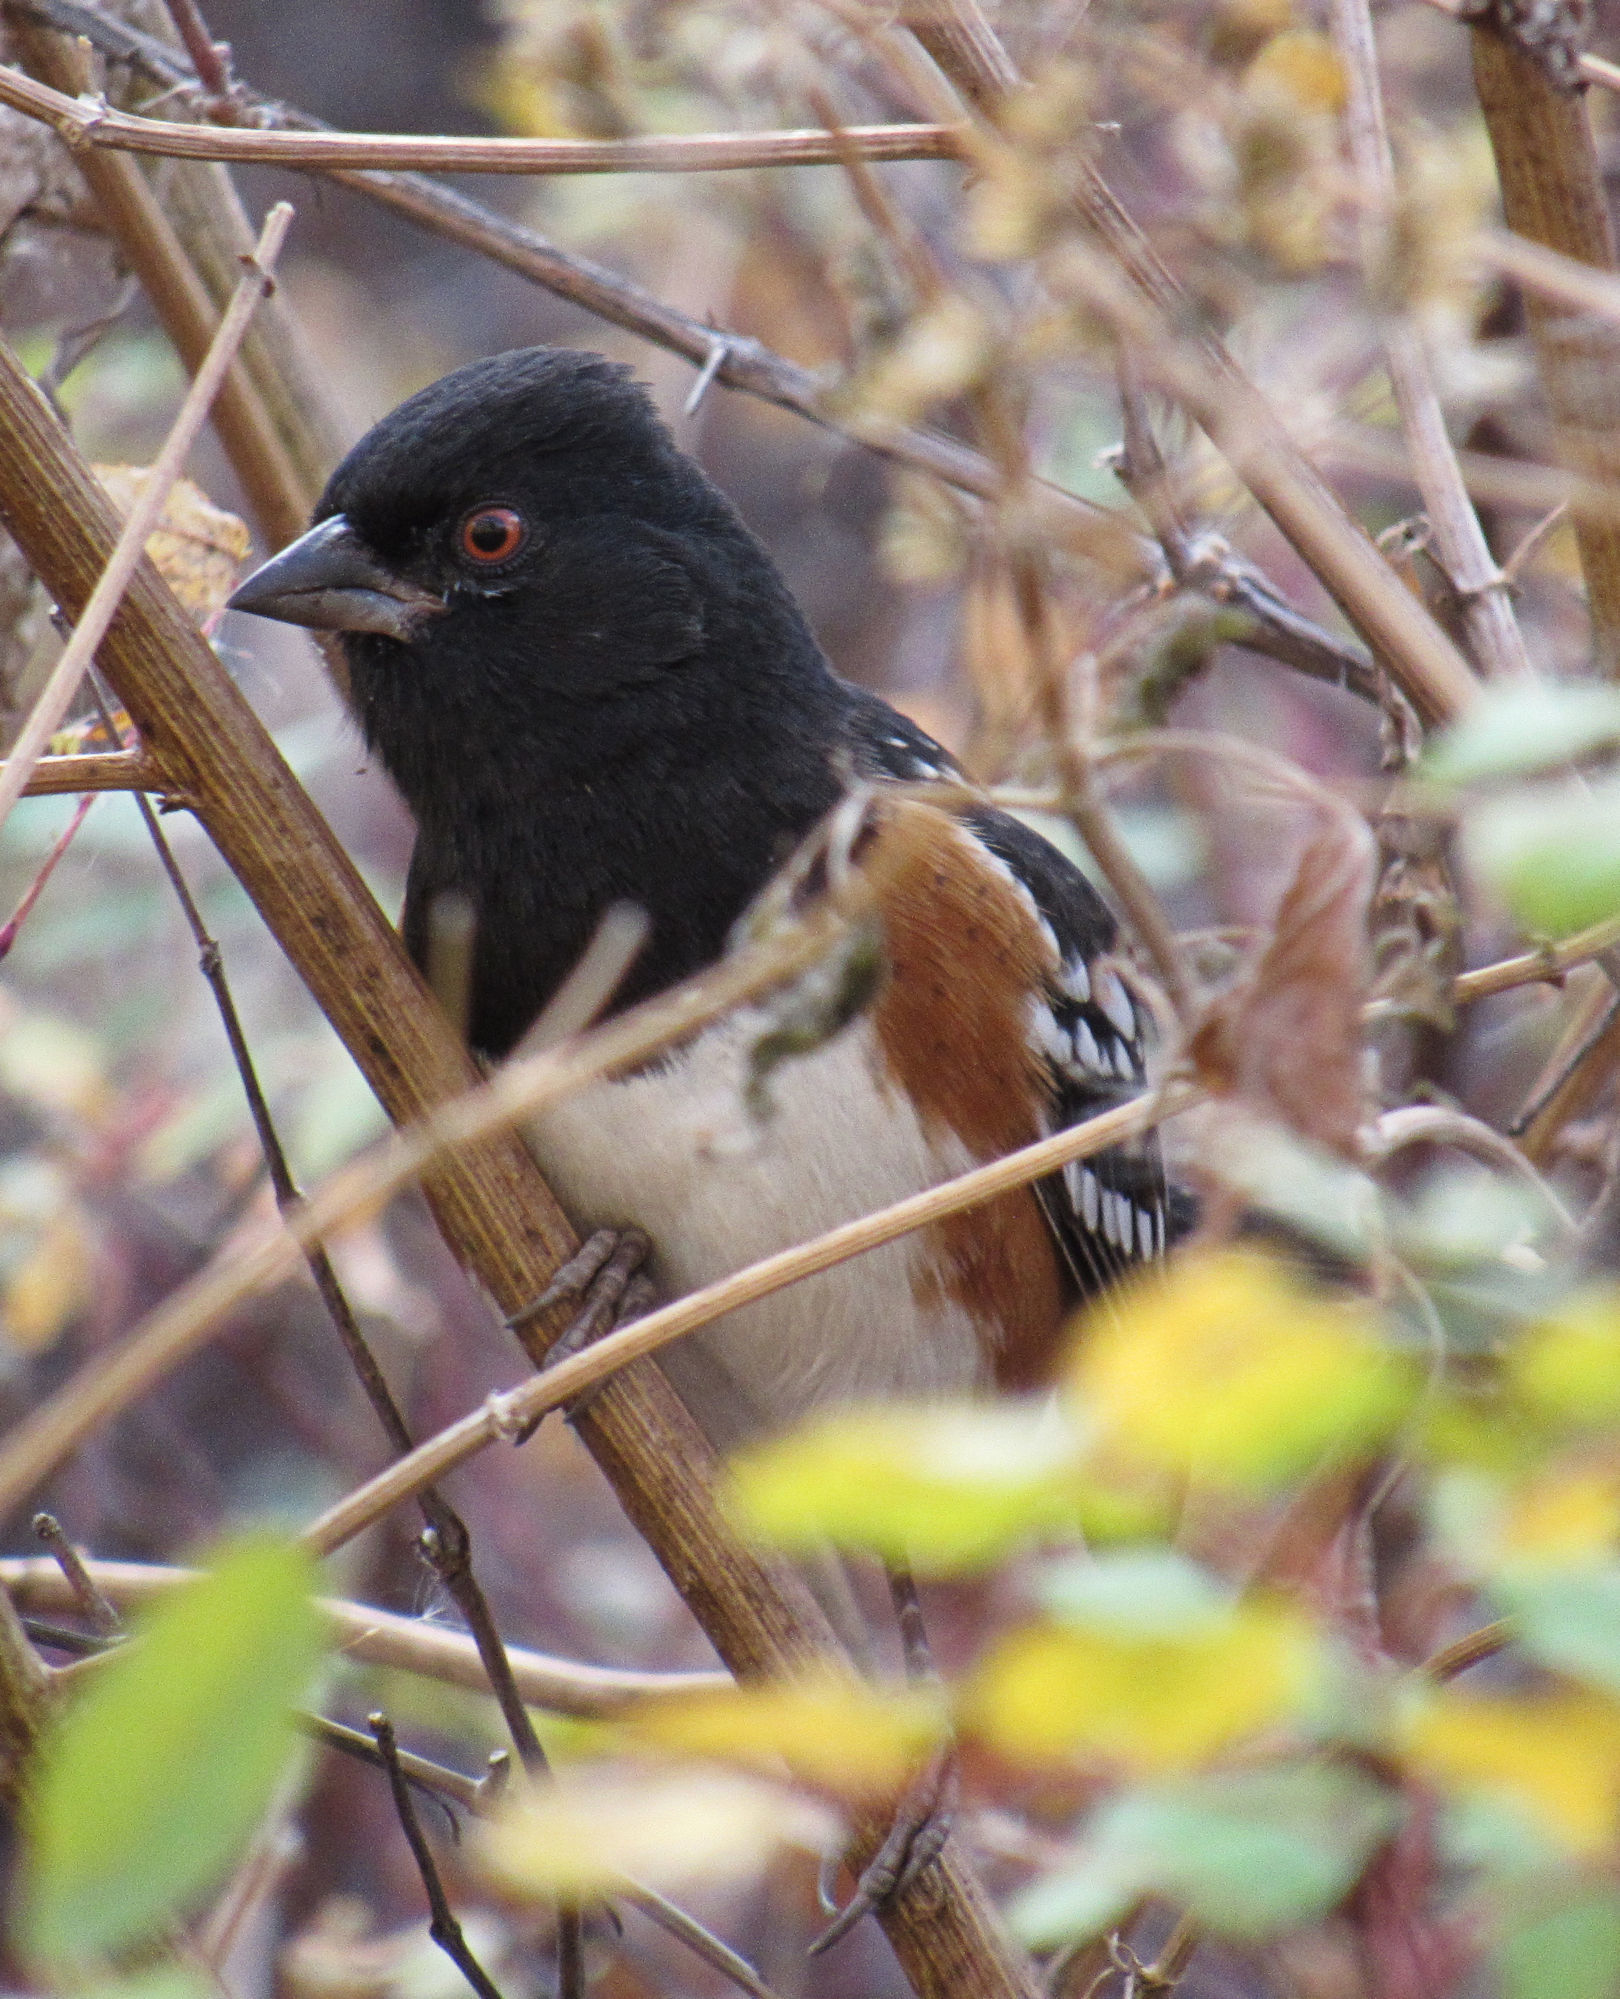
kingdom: Animalia
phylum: Chordata
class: Aves
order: Passeriformes
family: Passerellidae
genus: Pipilo
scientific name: Pipilo maculatus
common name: Spotted towhee
